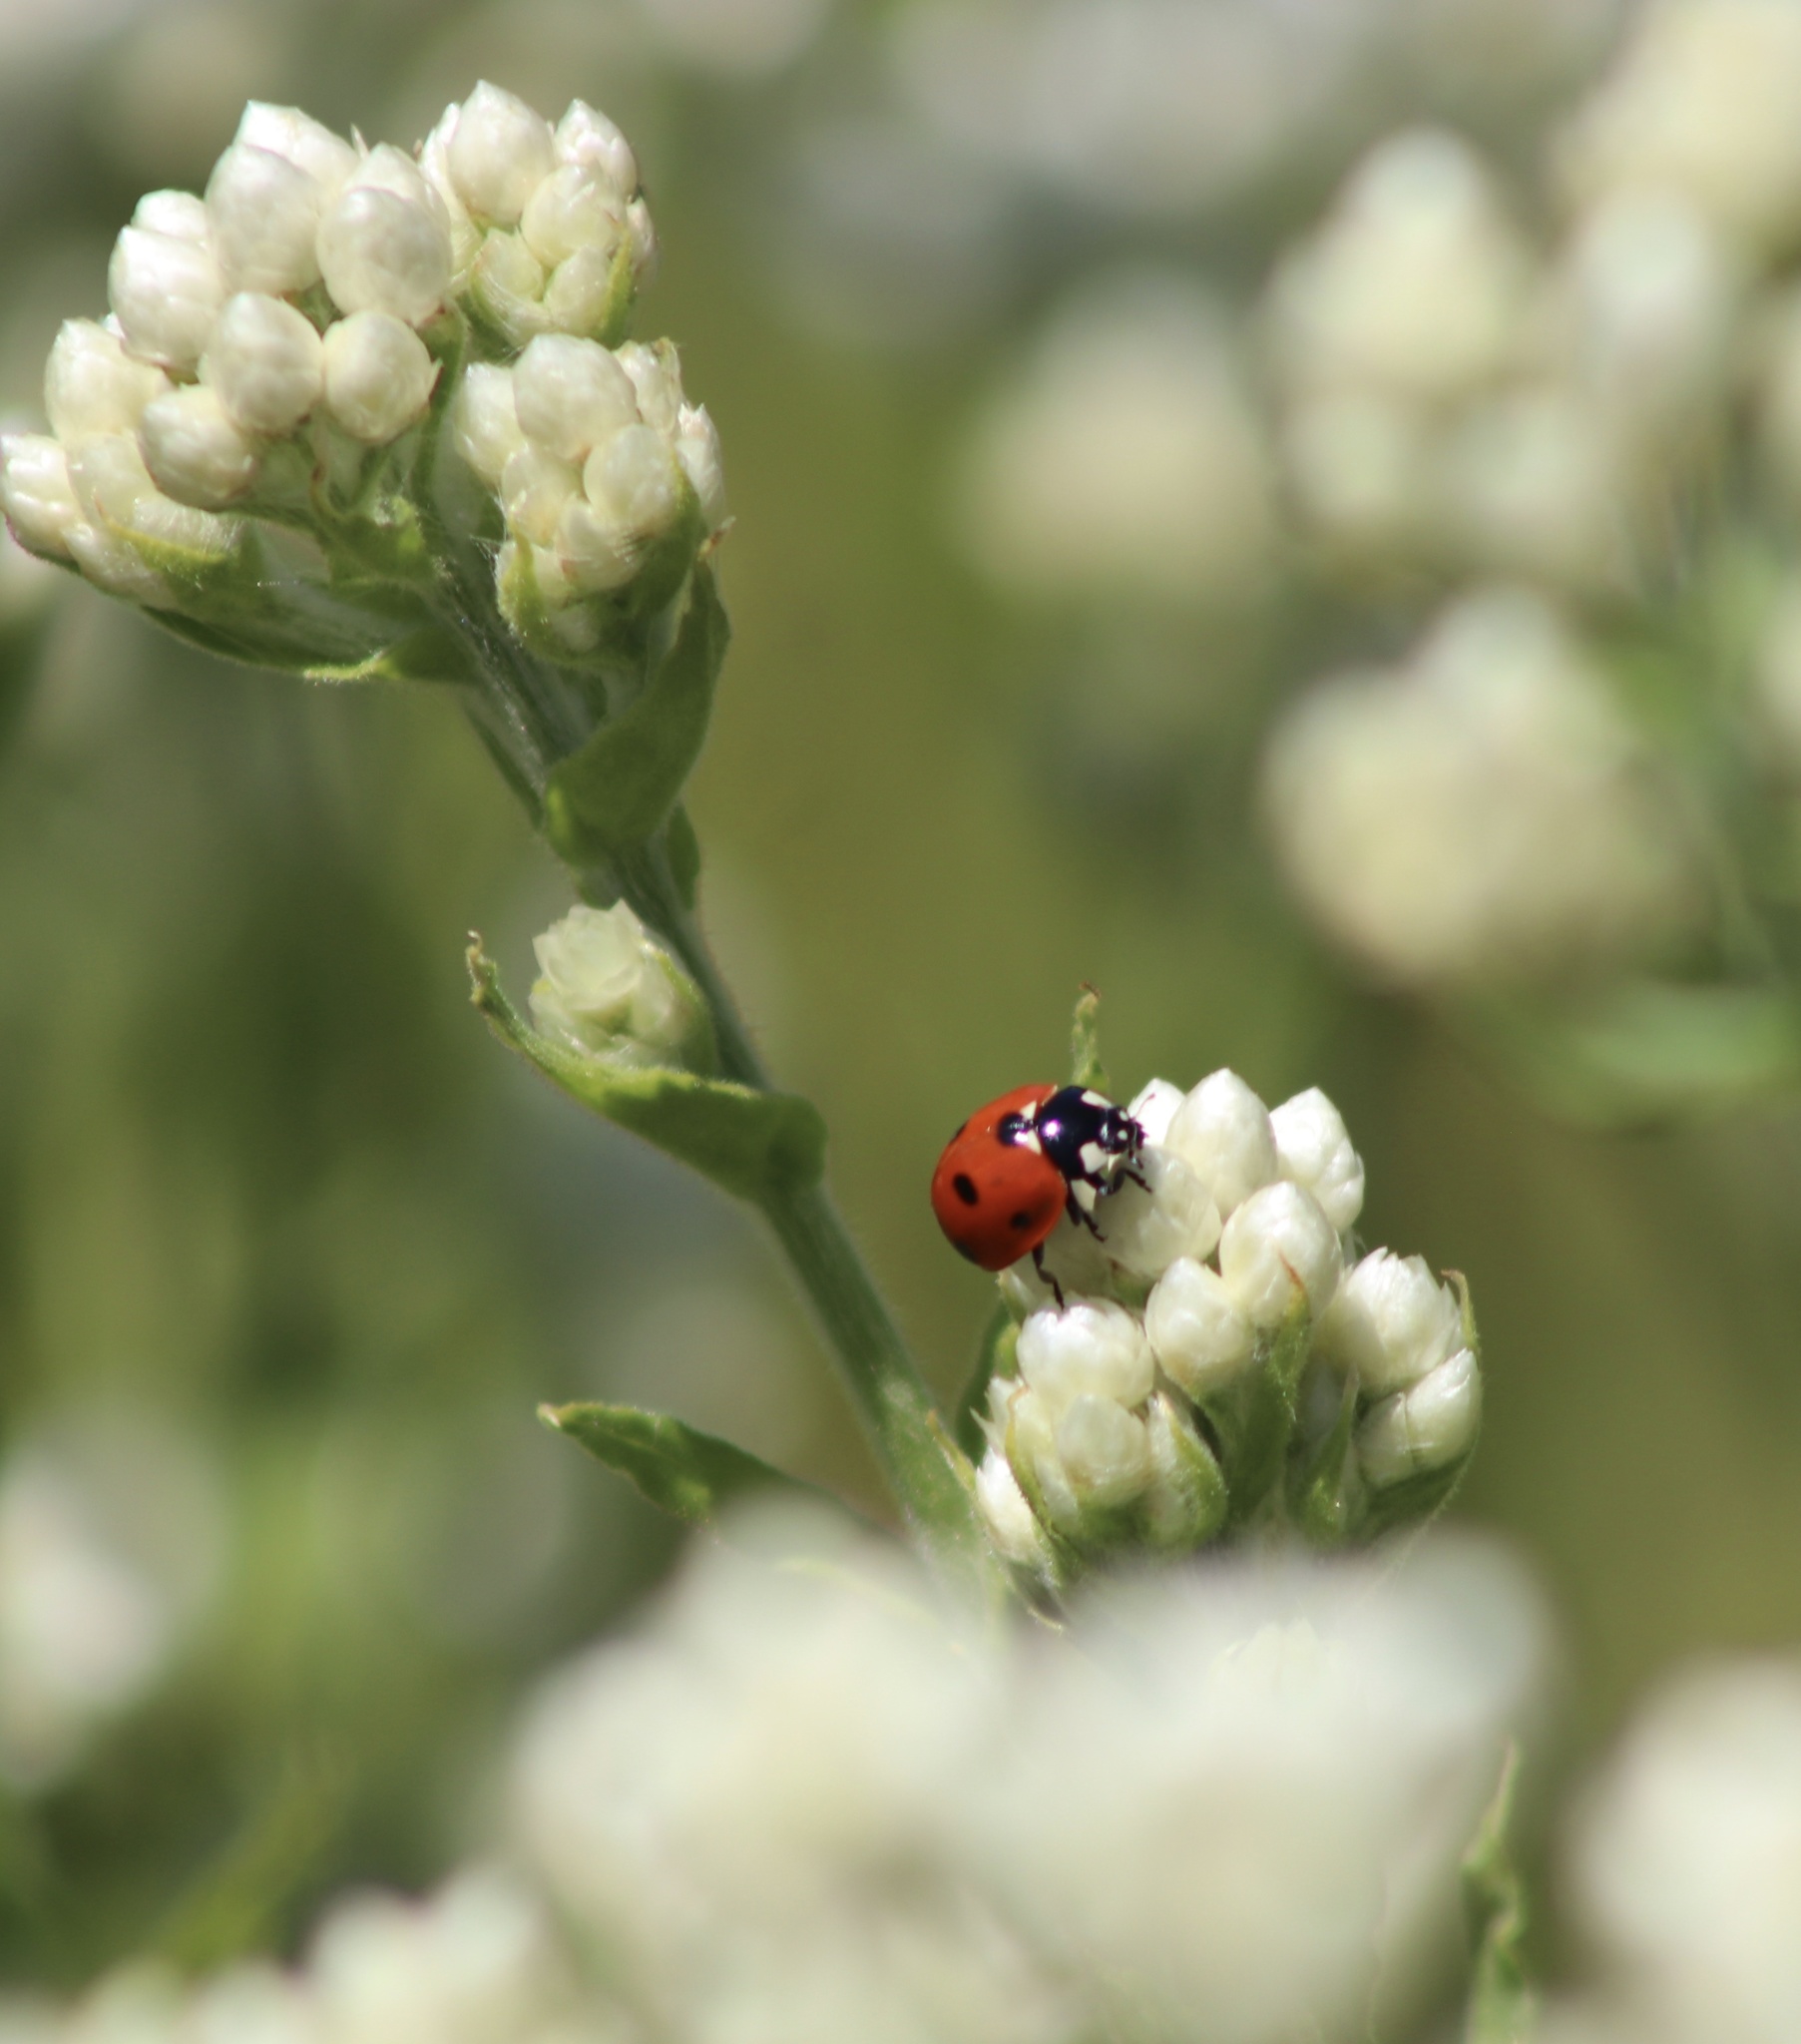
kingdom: Animalia
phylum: Arthropoda
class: Insecta
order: Coleoptera
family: Coccinellidae
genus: Coccinella
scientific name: Coccinella septempunctata
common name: Sevenspotted lady beetle
